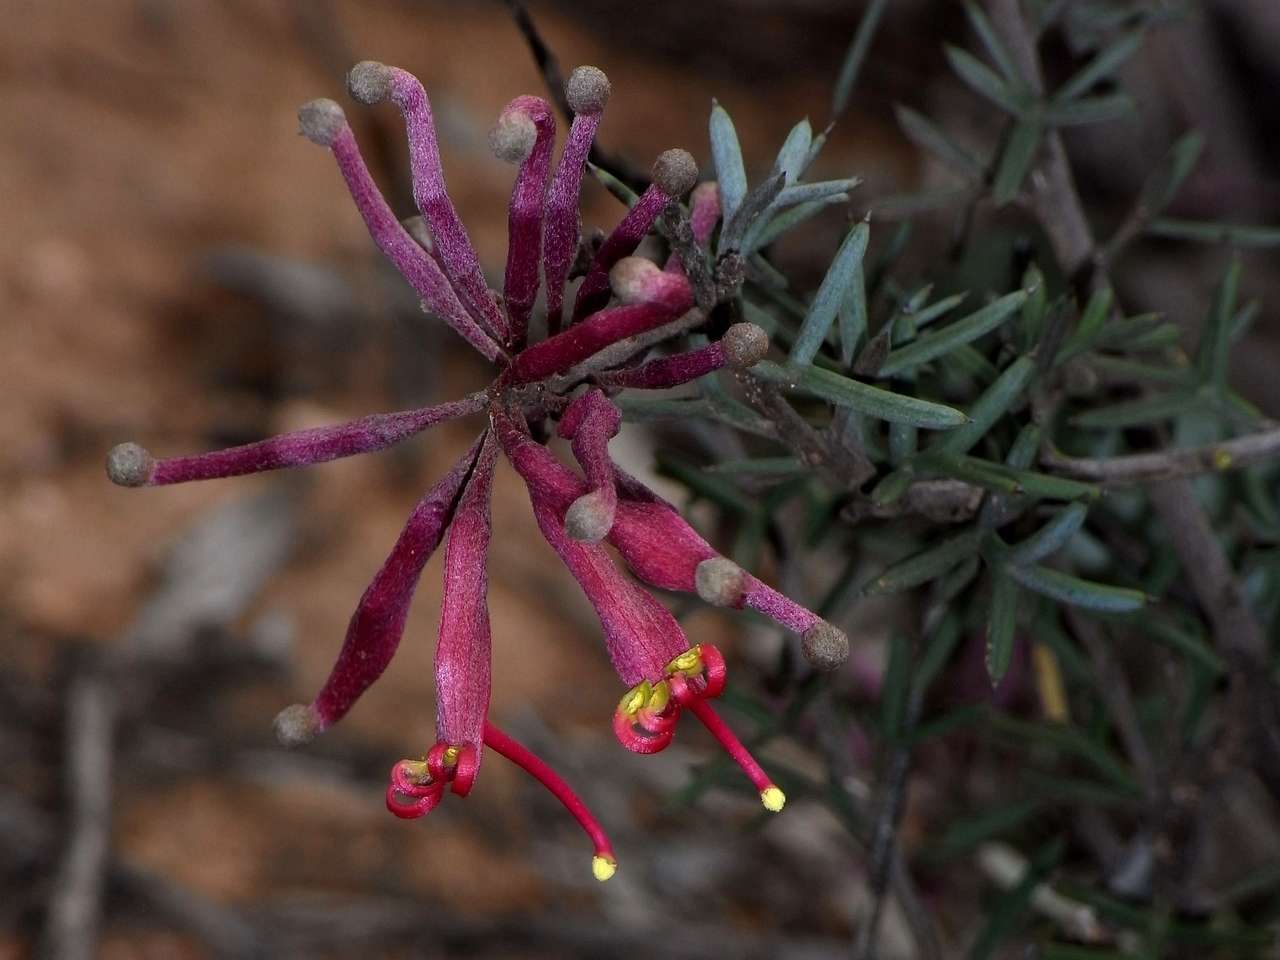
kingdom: Plantae
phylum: Tracheophyta
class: Magnoliopsida
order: Proteales
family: Proteaceae
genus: Grevillea
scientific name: Grevillea huegelii
